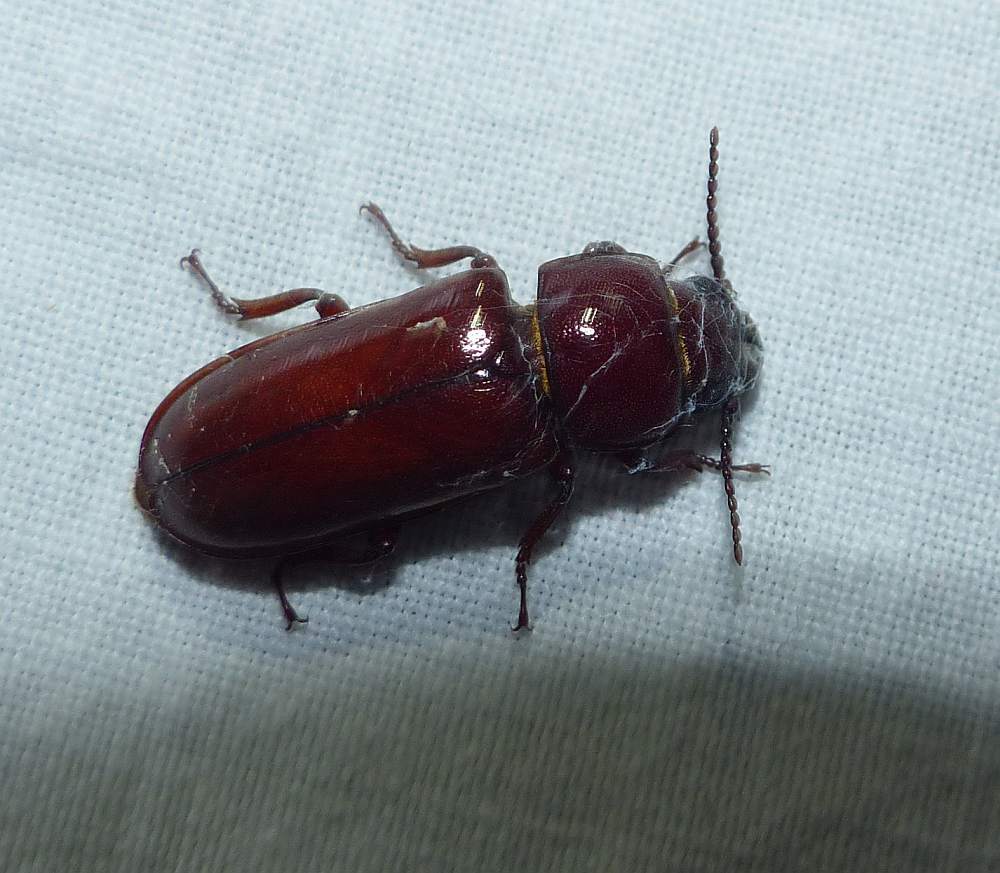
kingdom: Animalia
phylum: Arthropoda
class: Insecta
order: Coleoptera
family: Cerambycidae
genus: Neandra
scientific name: Neandra brunnea
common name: Pole borer
